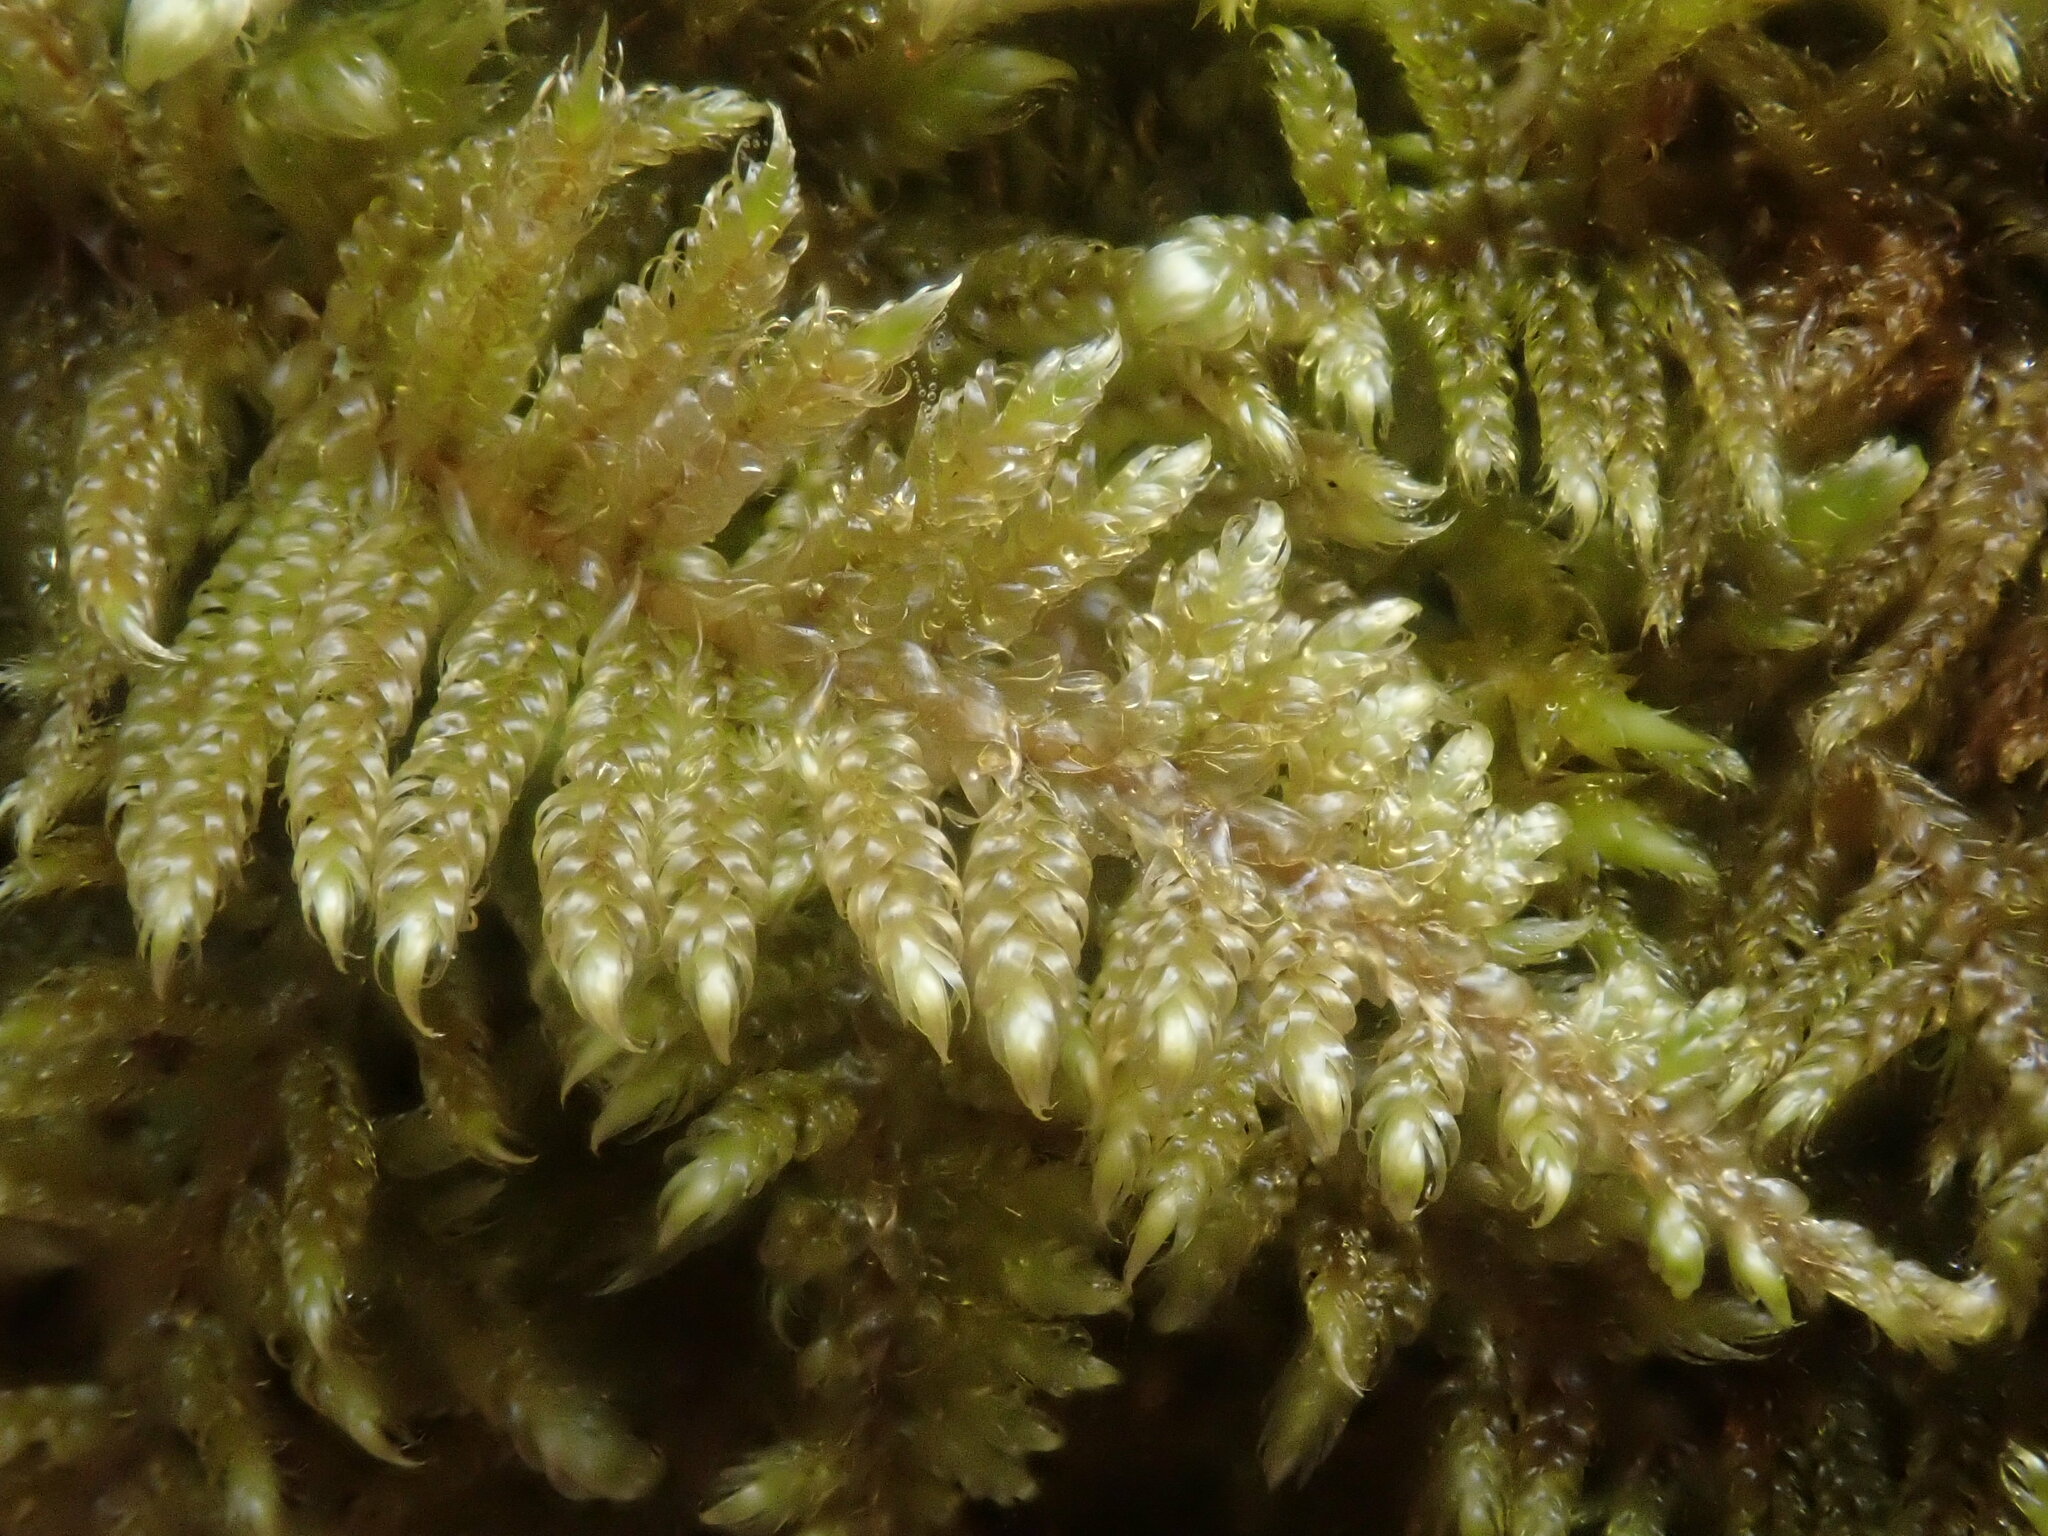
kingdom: Plantae
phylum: Bryophyta
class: Bryopsida
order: Hypnales
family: Callicladiaceae
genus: Callicladium
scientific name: Callicladium imponens
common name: Brocade moss
